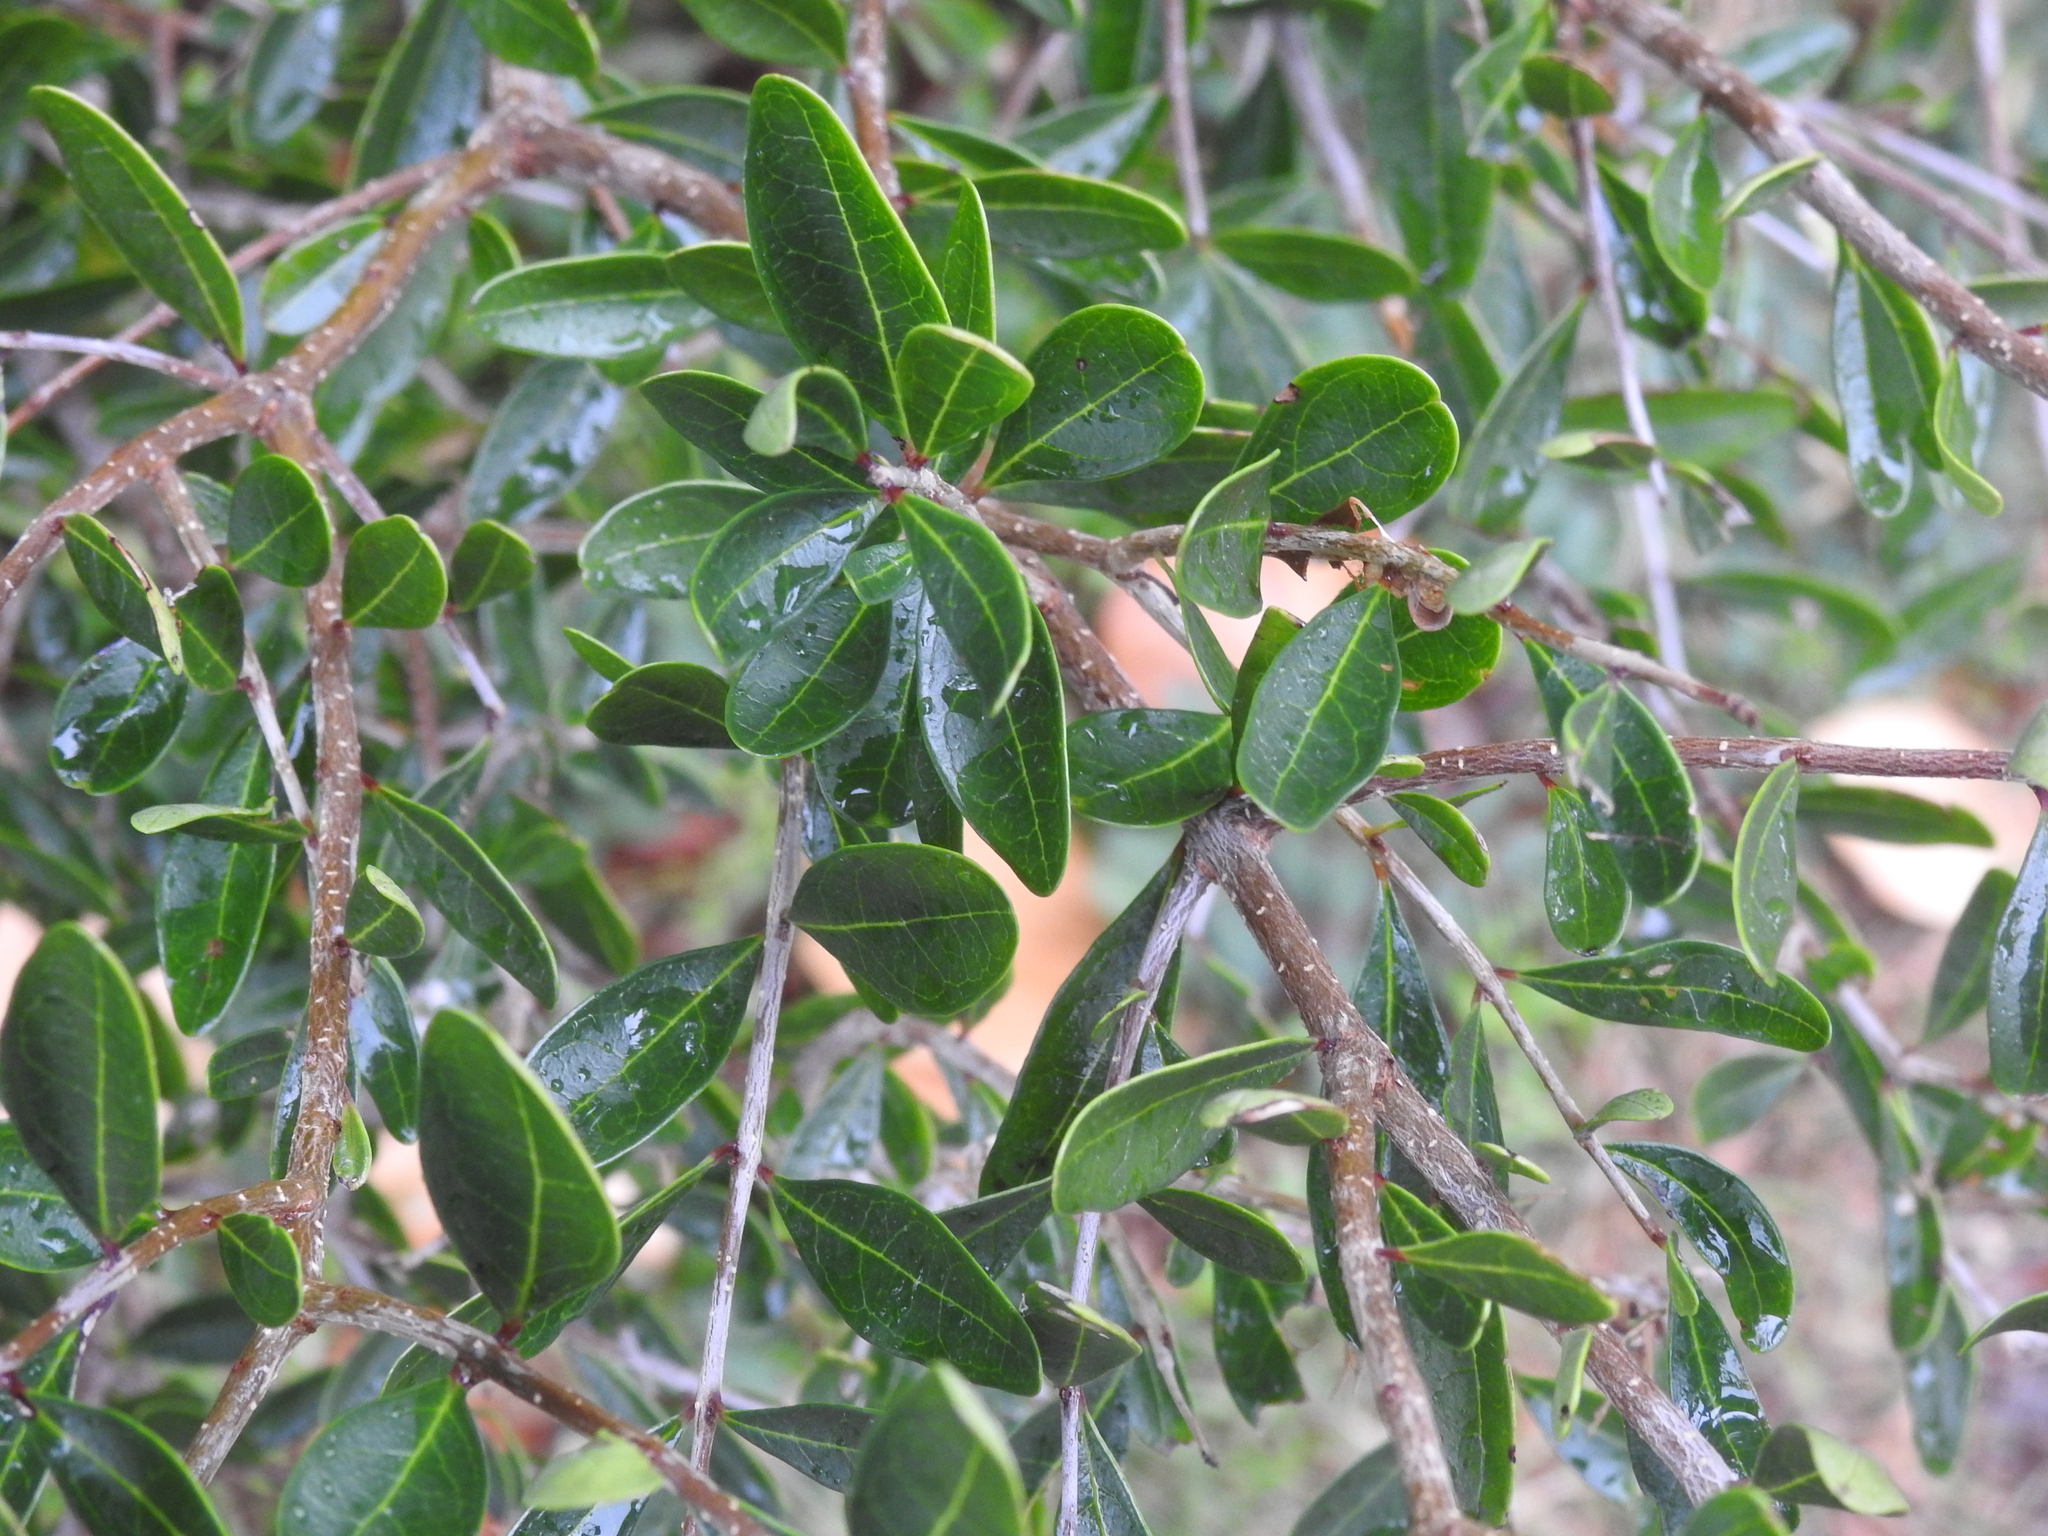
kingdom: Plantae
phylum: Tracheophyta
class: Magnoliopsida
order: Lamiales
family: Oleaceae
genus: Forestiera
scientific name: Forestiera segregata
